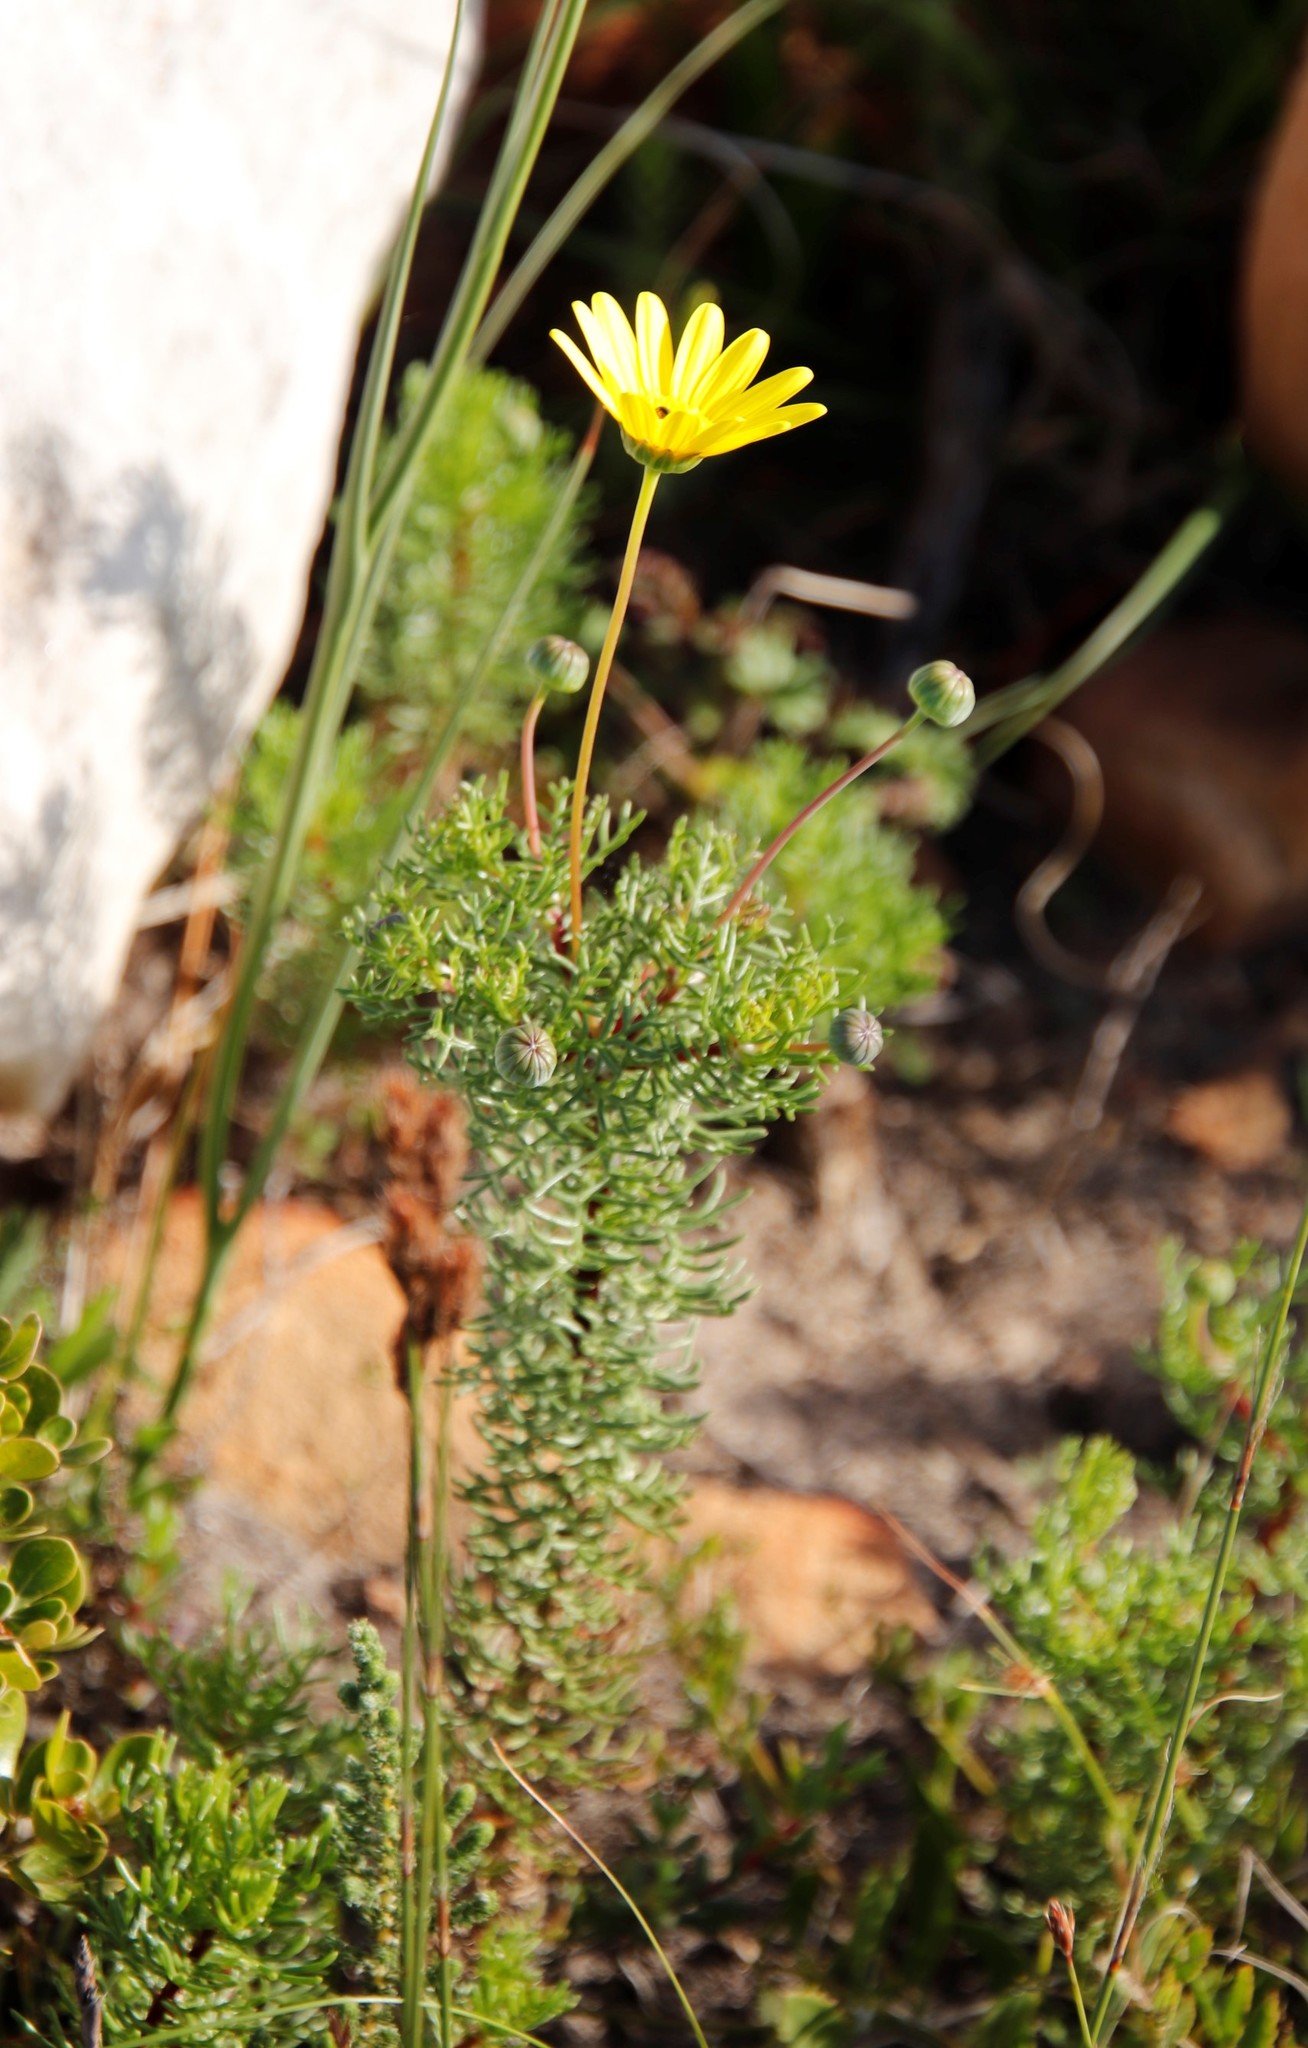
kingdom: Plantae
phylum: Tracheophyta
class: Magnoliopsida
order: Asterales
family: Asteraceae
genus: Euryops
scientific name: Euryops abrotanifolius
